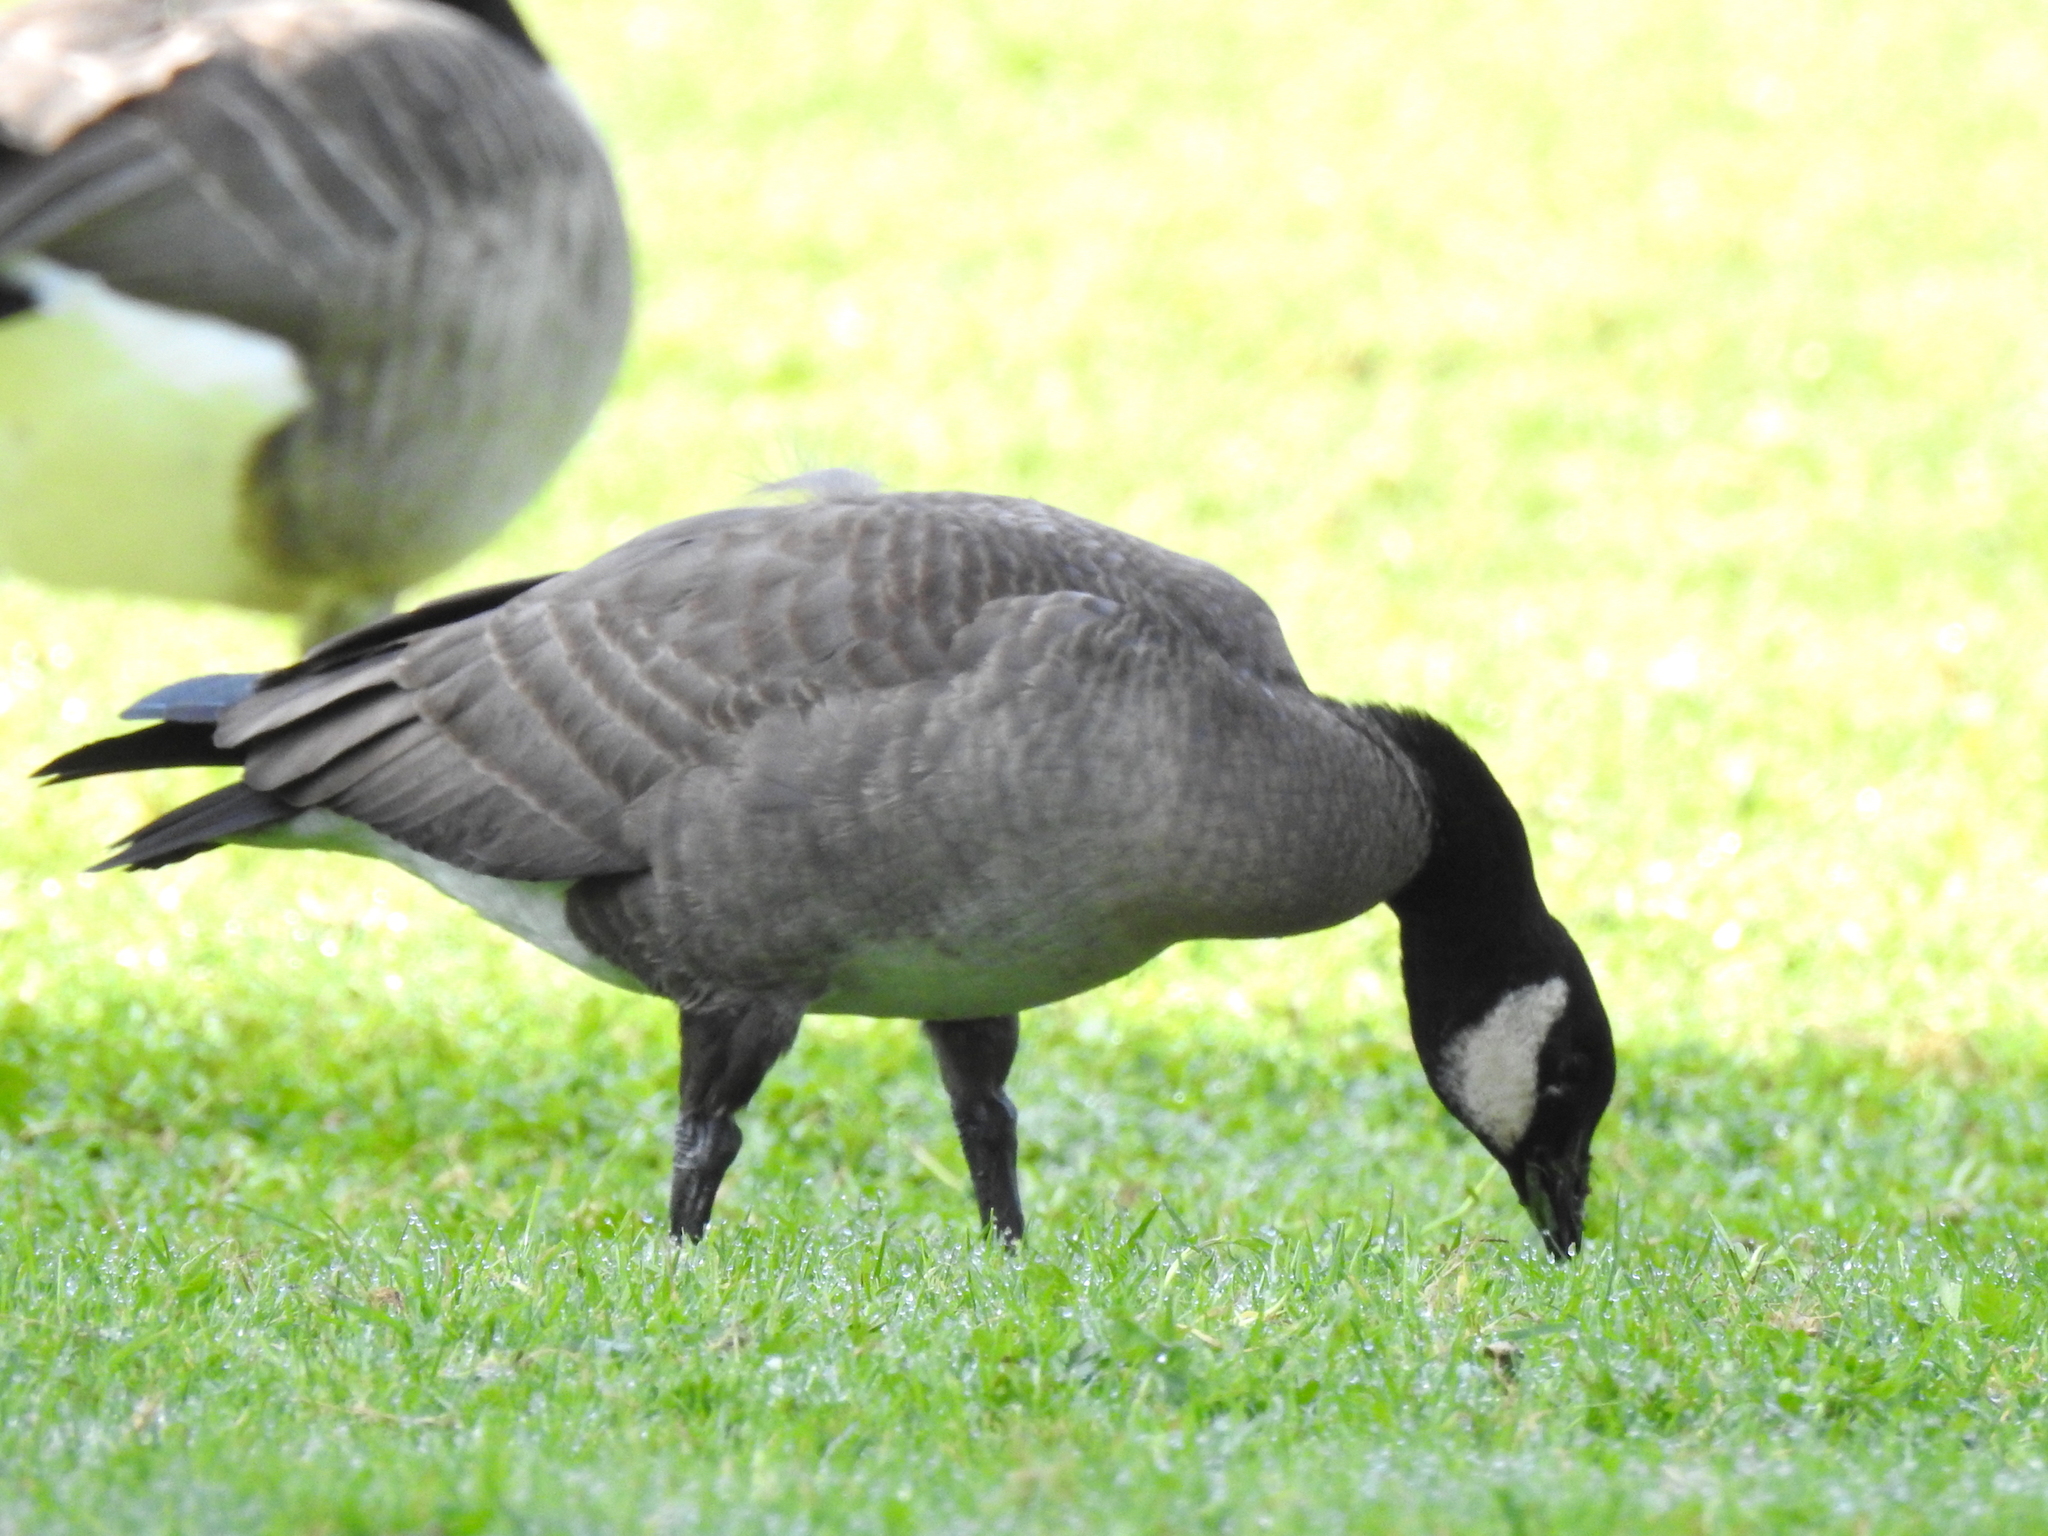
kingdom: Animalia
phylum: Chordata
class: Aves
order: Anseriformes
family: Anatidae
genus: Branta
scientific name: Branta hutchinsii
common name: Cackling goose
